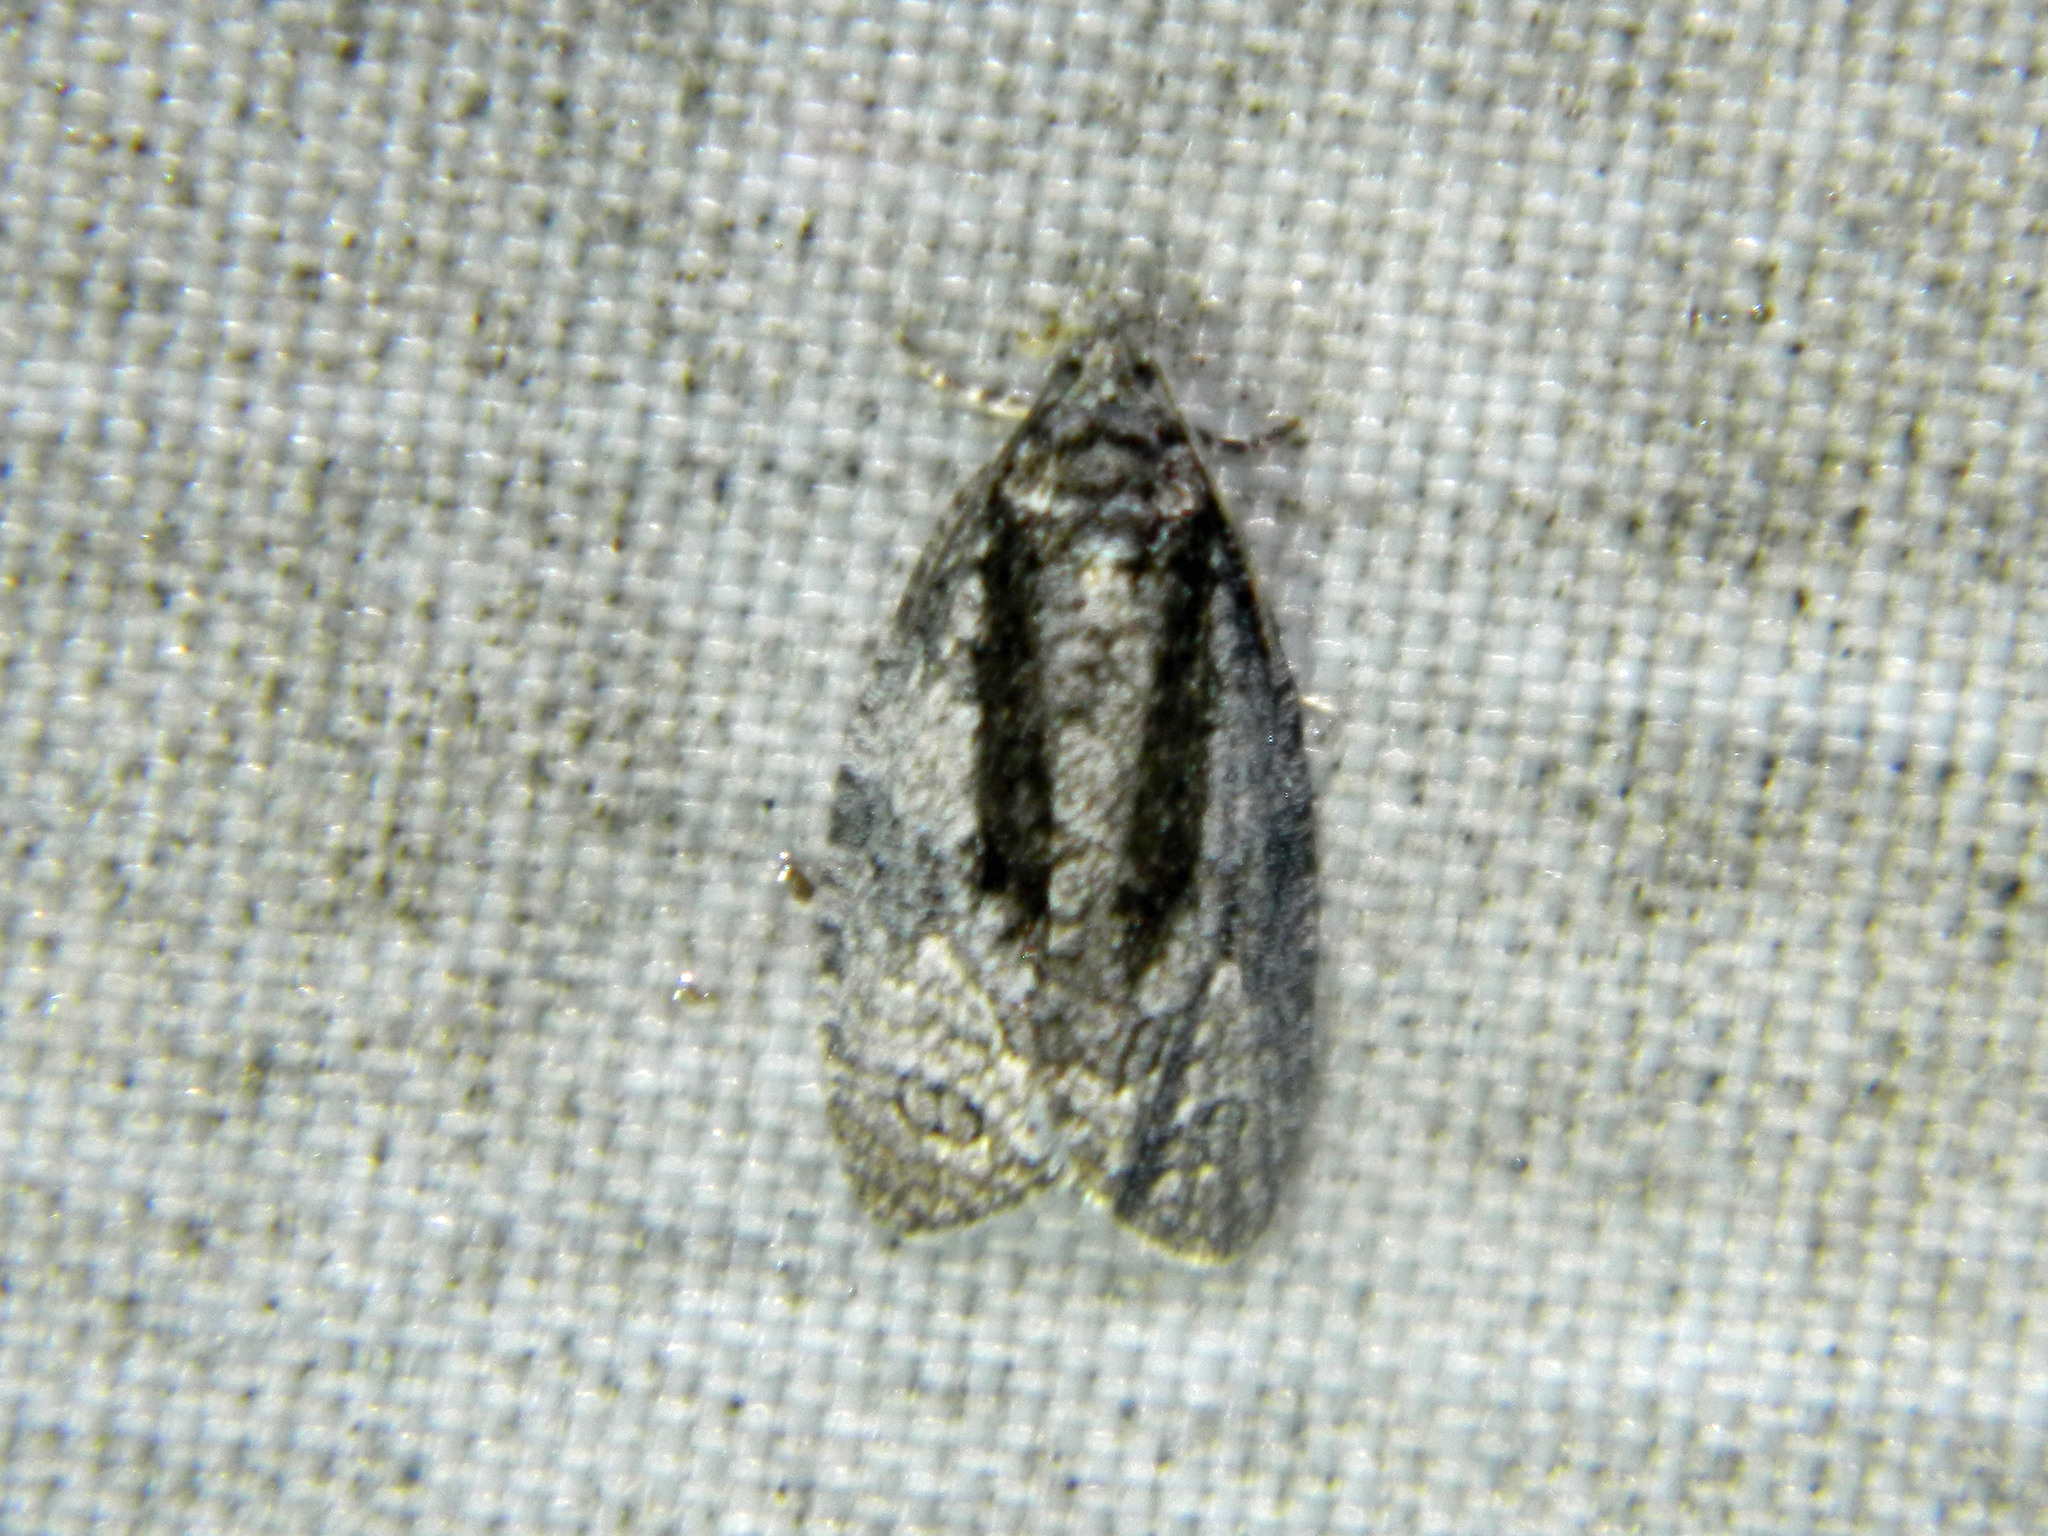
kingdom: Animalia
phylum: Arthropoda
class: Insecta
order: Lepidoptera
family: Tortricidae
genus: Apotomis
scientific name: Apotomis removana
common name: Green aspen leafroller
